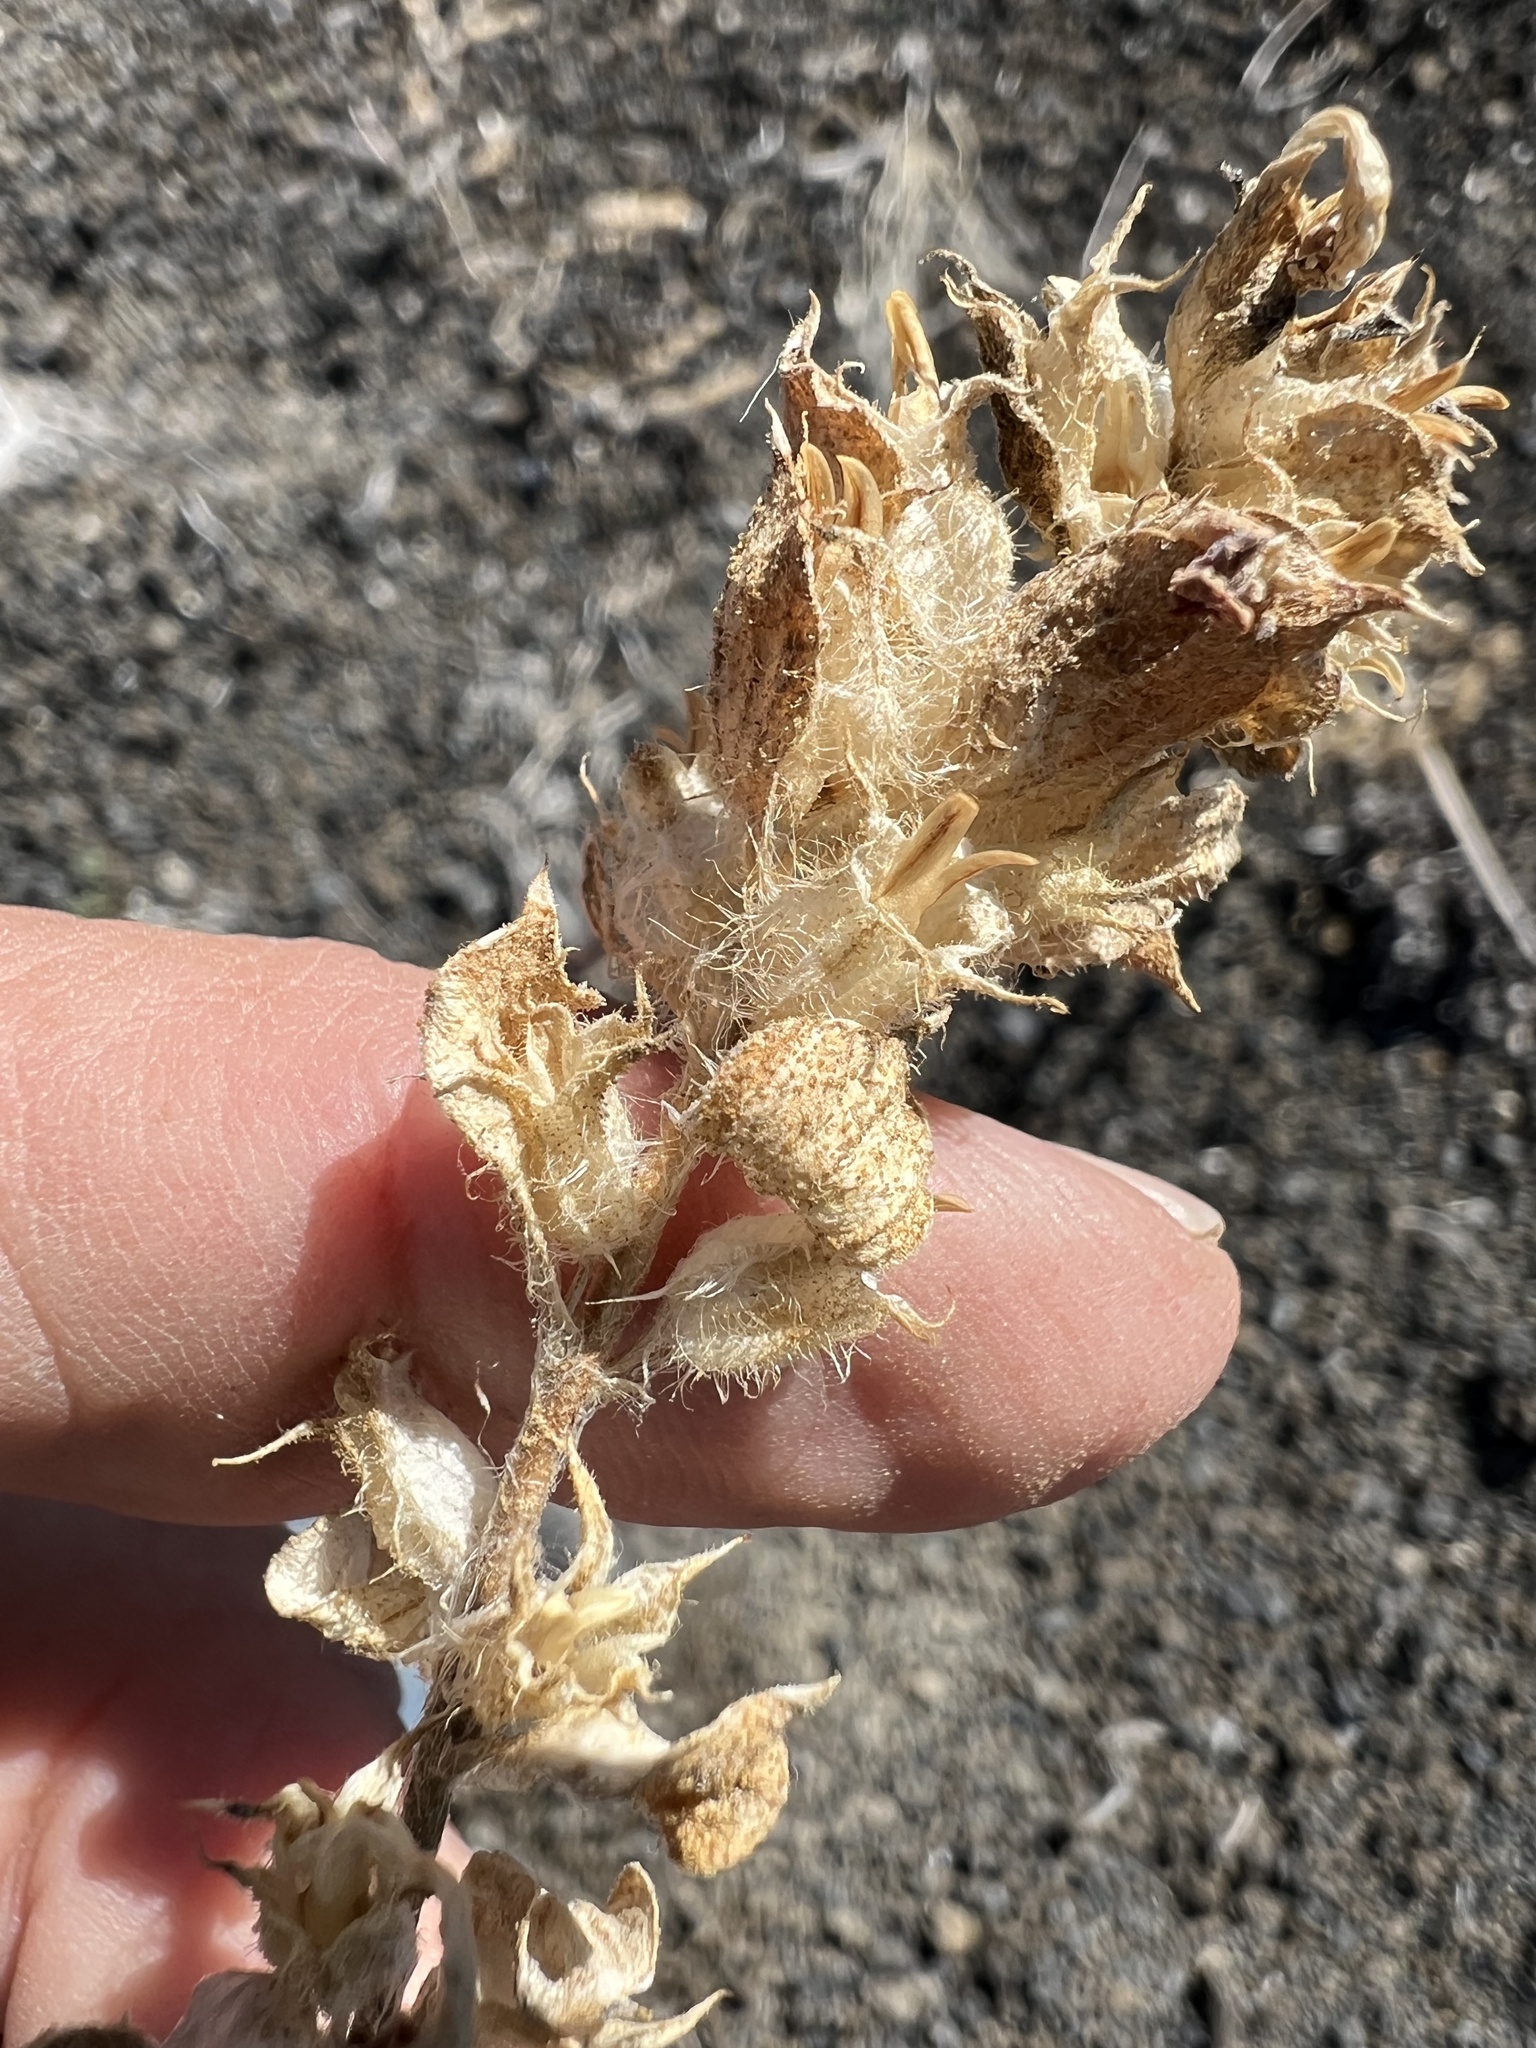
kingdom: Plantae
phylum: Tracheophyta
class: Magnoliopsida
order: Lamiales
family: Phrymaceae
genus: Diplacus
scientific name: Diplacus bigelovii
